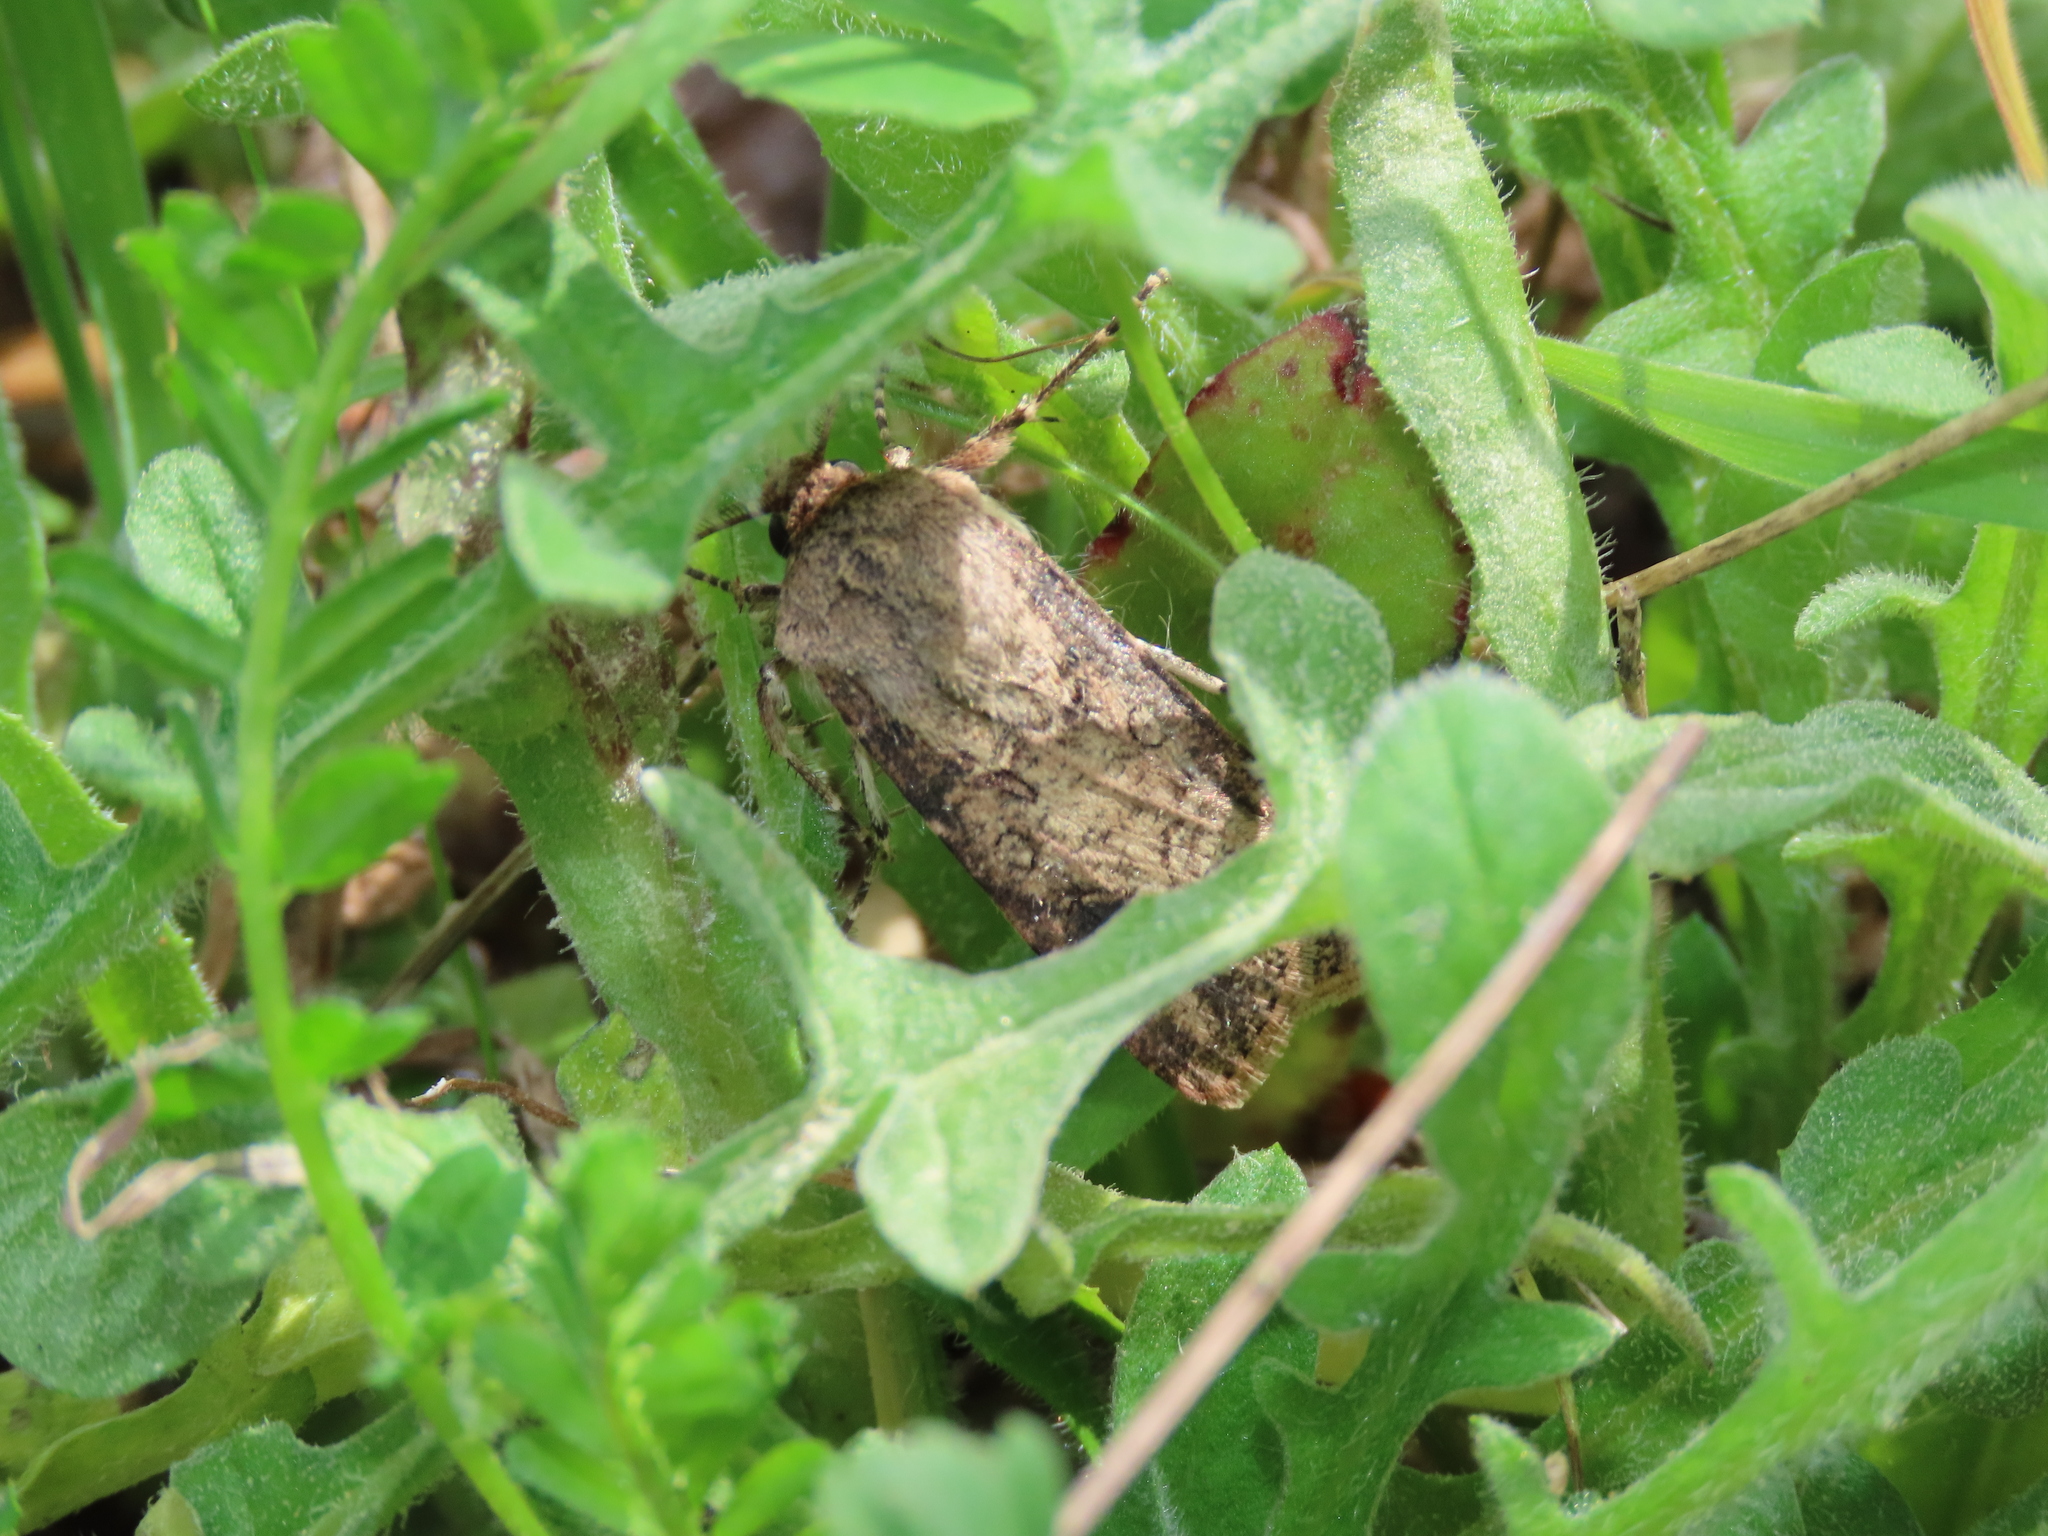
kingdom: Animalia
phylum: Arthropoda
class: Insecta
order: Lepidoptera
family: Noctuidae
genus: Agrotis
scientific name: Agrotis segetum
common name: Turnip moth
